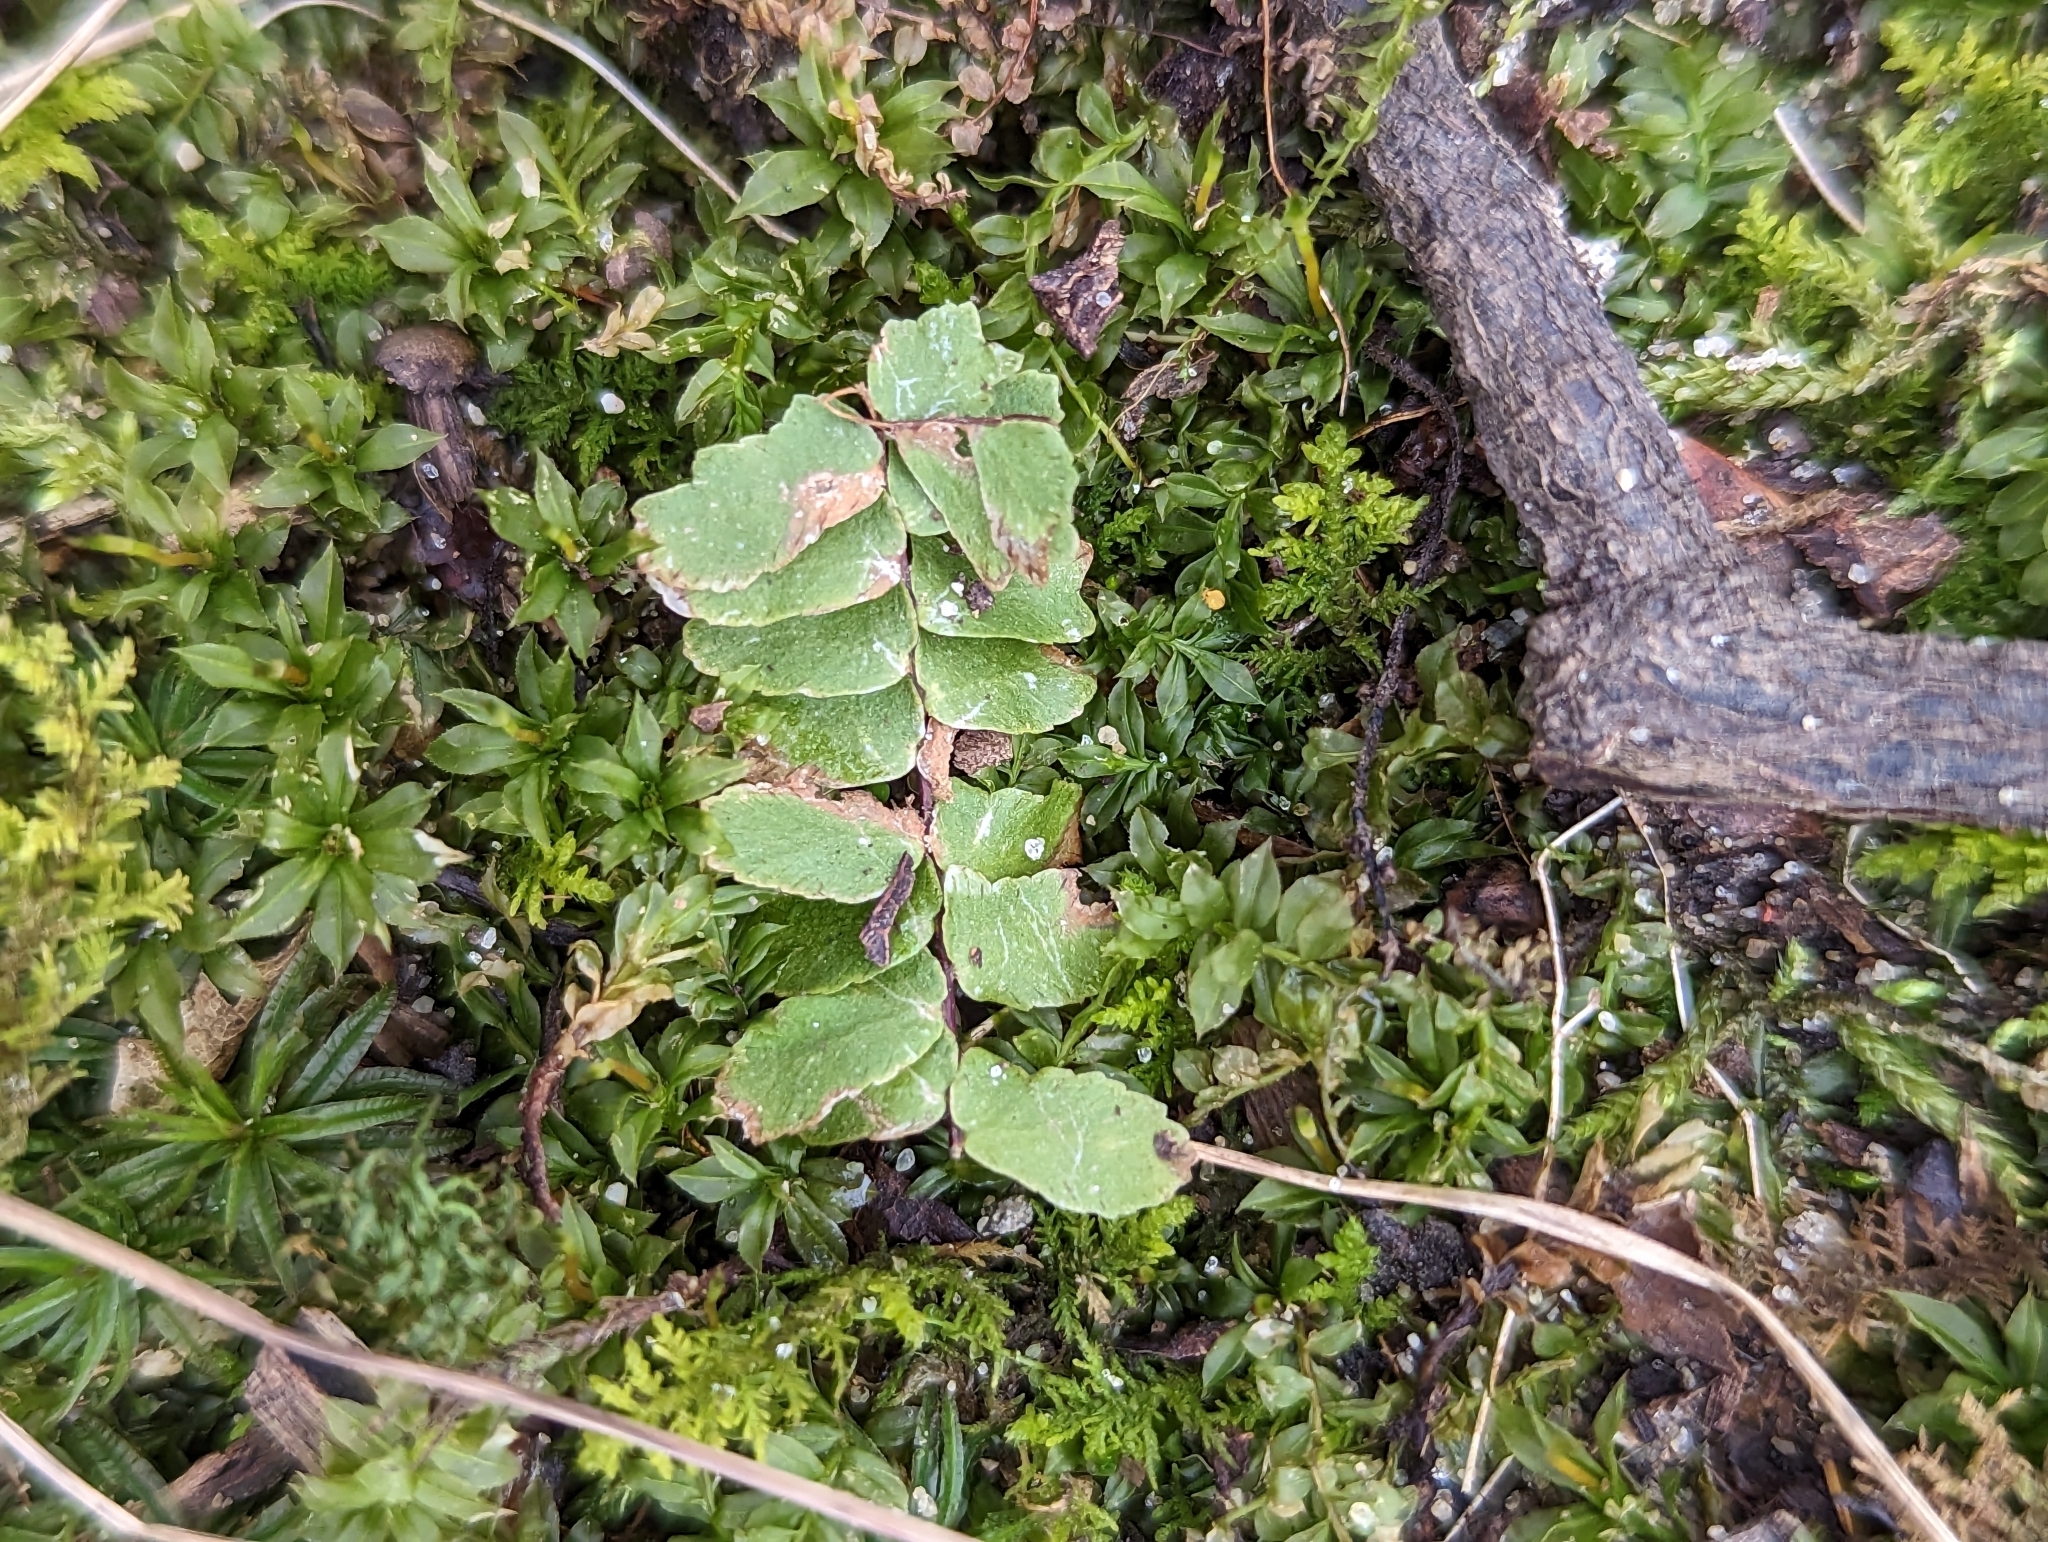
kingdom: Plantae
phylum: Tracheophyta
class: Polypodiopsida
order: Polypodiales
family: Aspleniaceae
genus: Asplenium
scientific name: Asplenium platyneuron
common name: Ebony spleenwort
